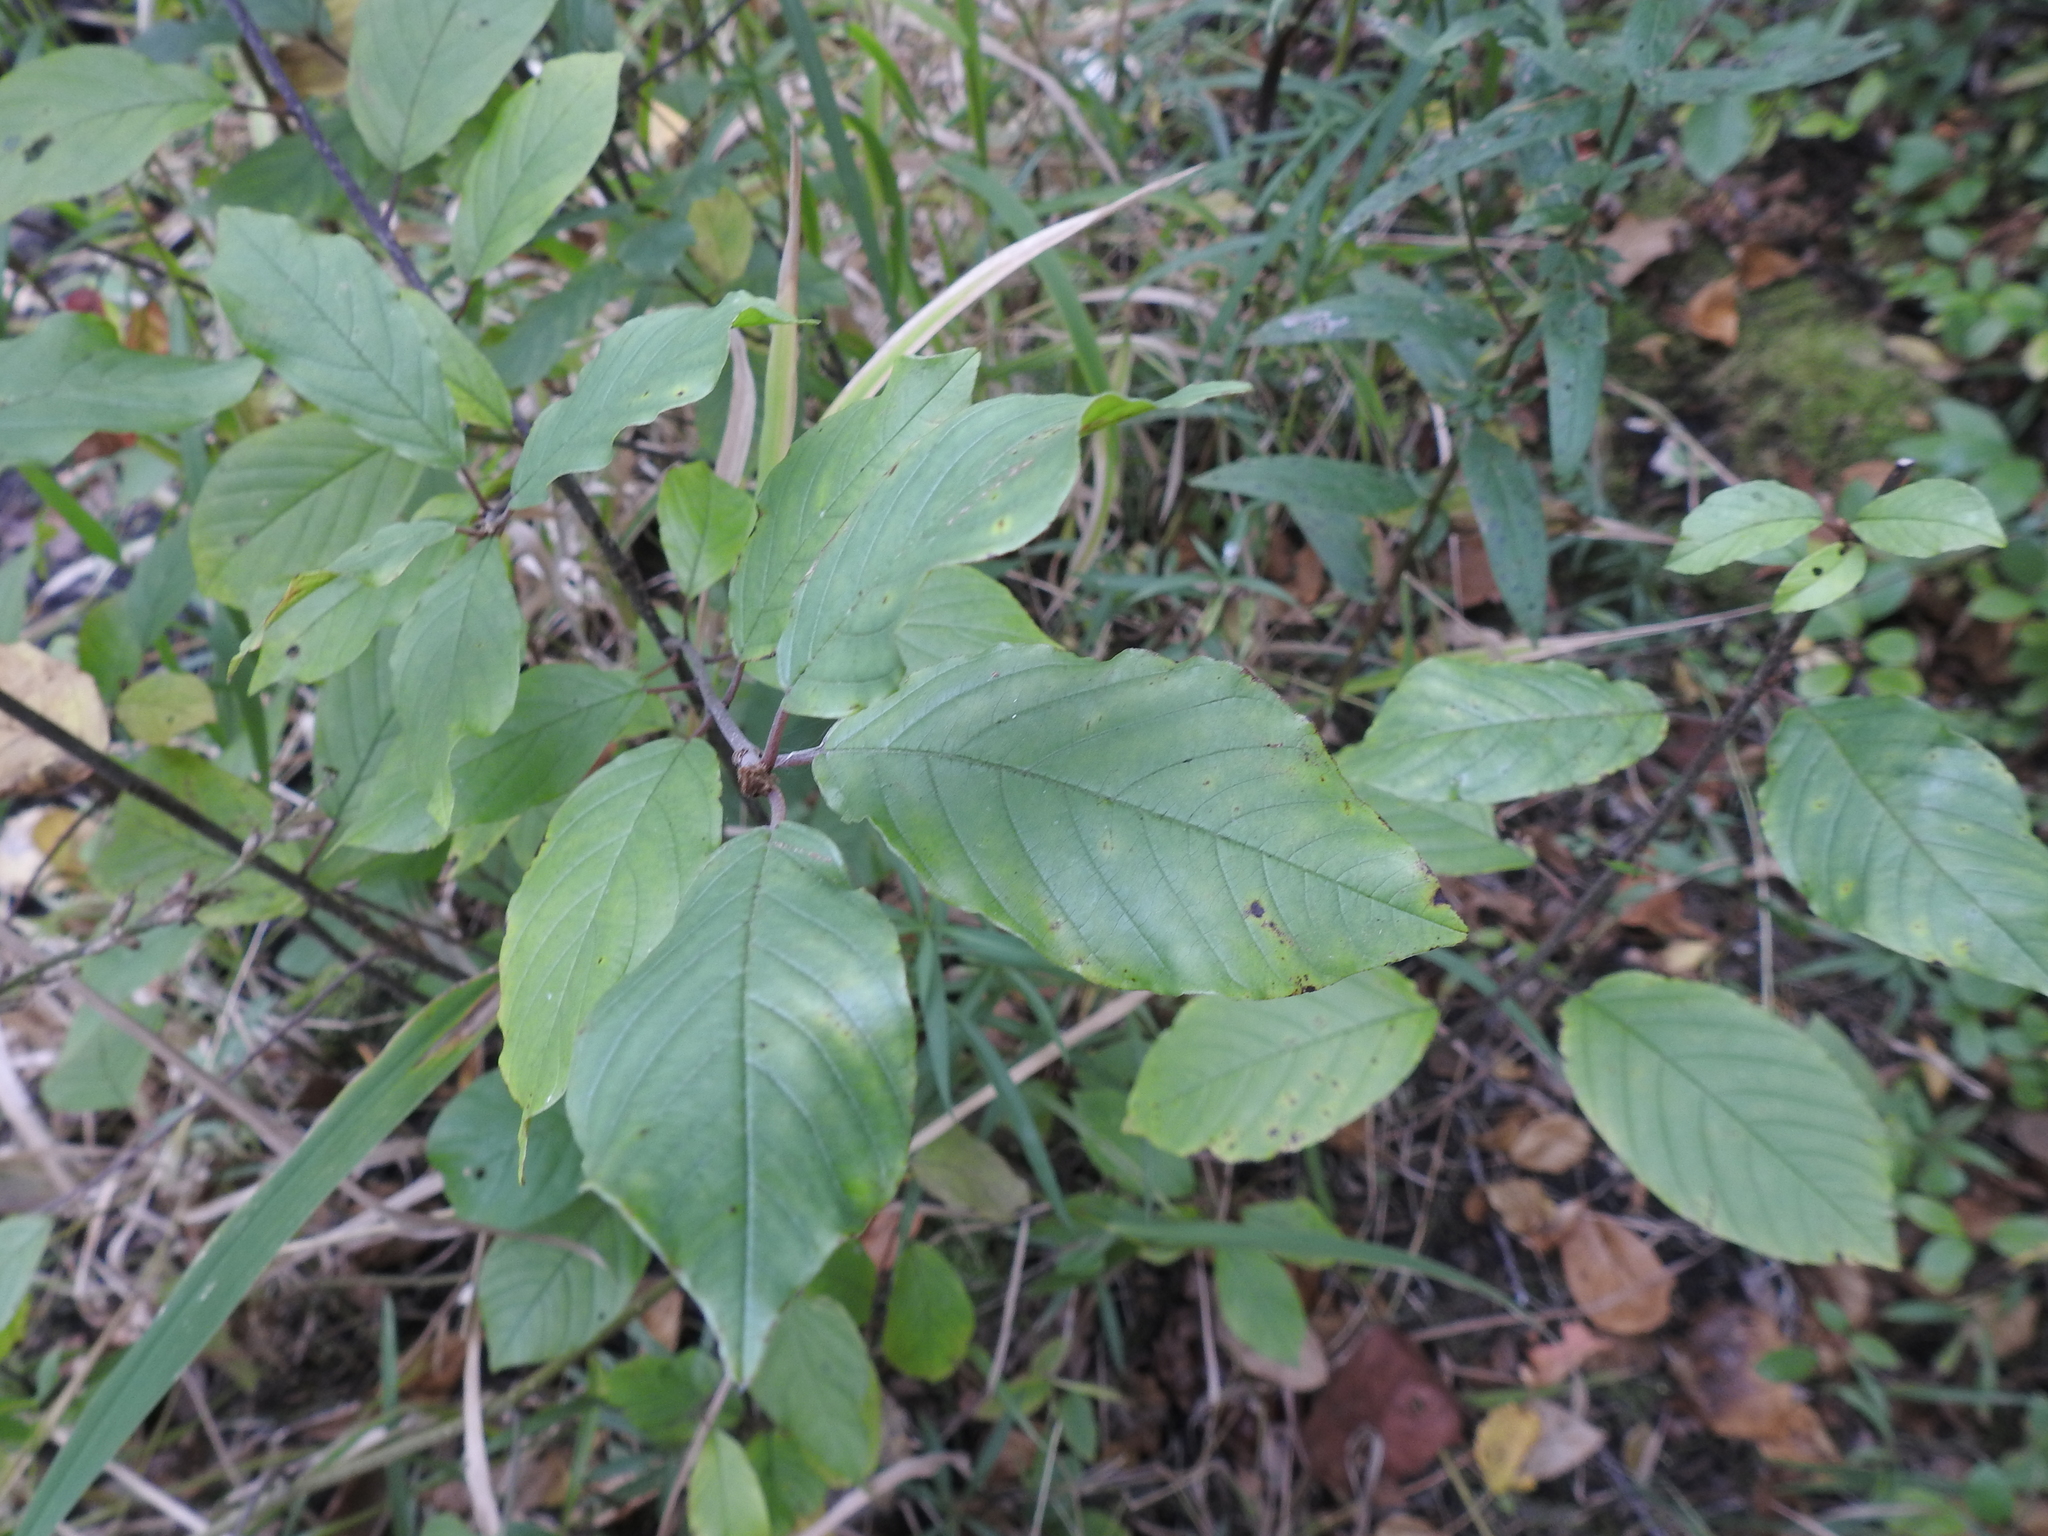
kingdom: Plantae
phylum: Tracheophyta
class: Magnoliopsida
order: Rosales
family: Rhamnaceae
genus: Frangula
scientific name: Frangula alnus
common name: Alder buckthorn
